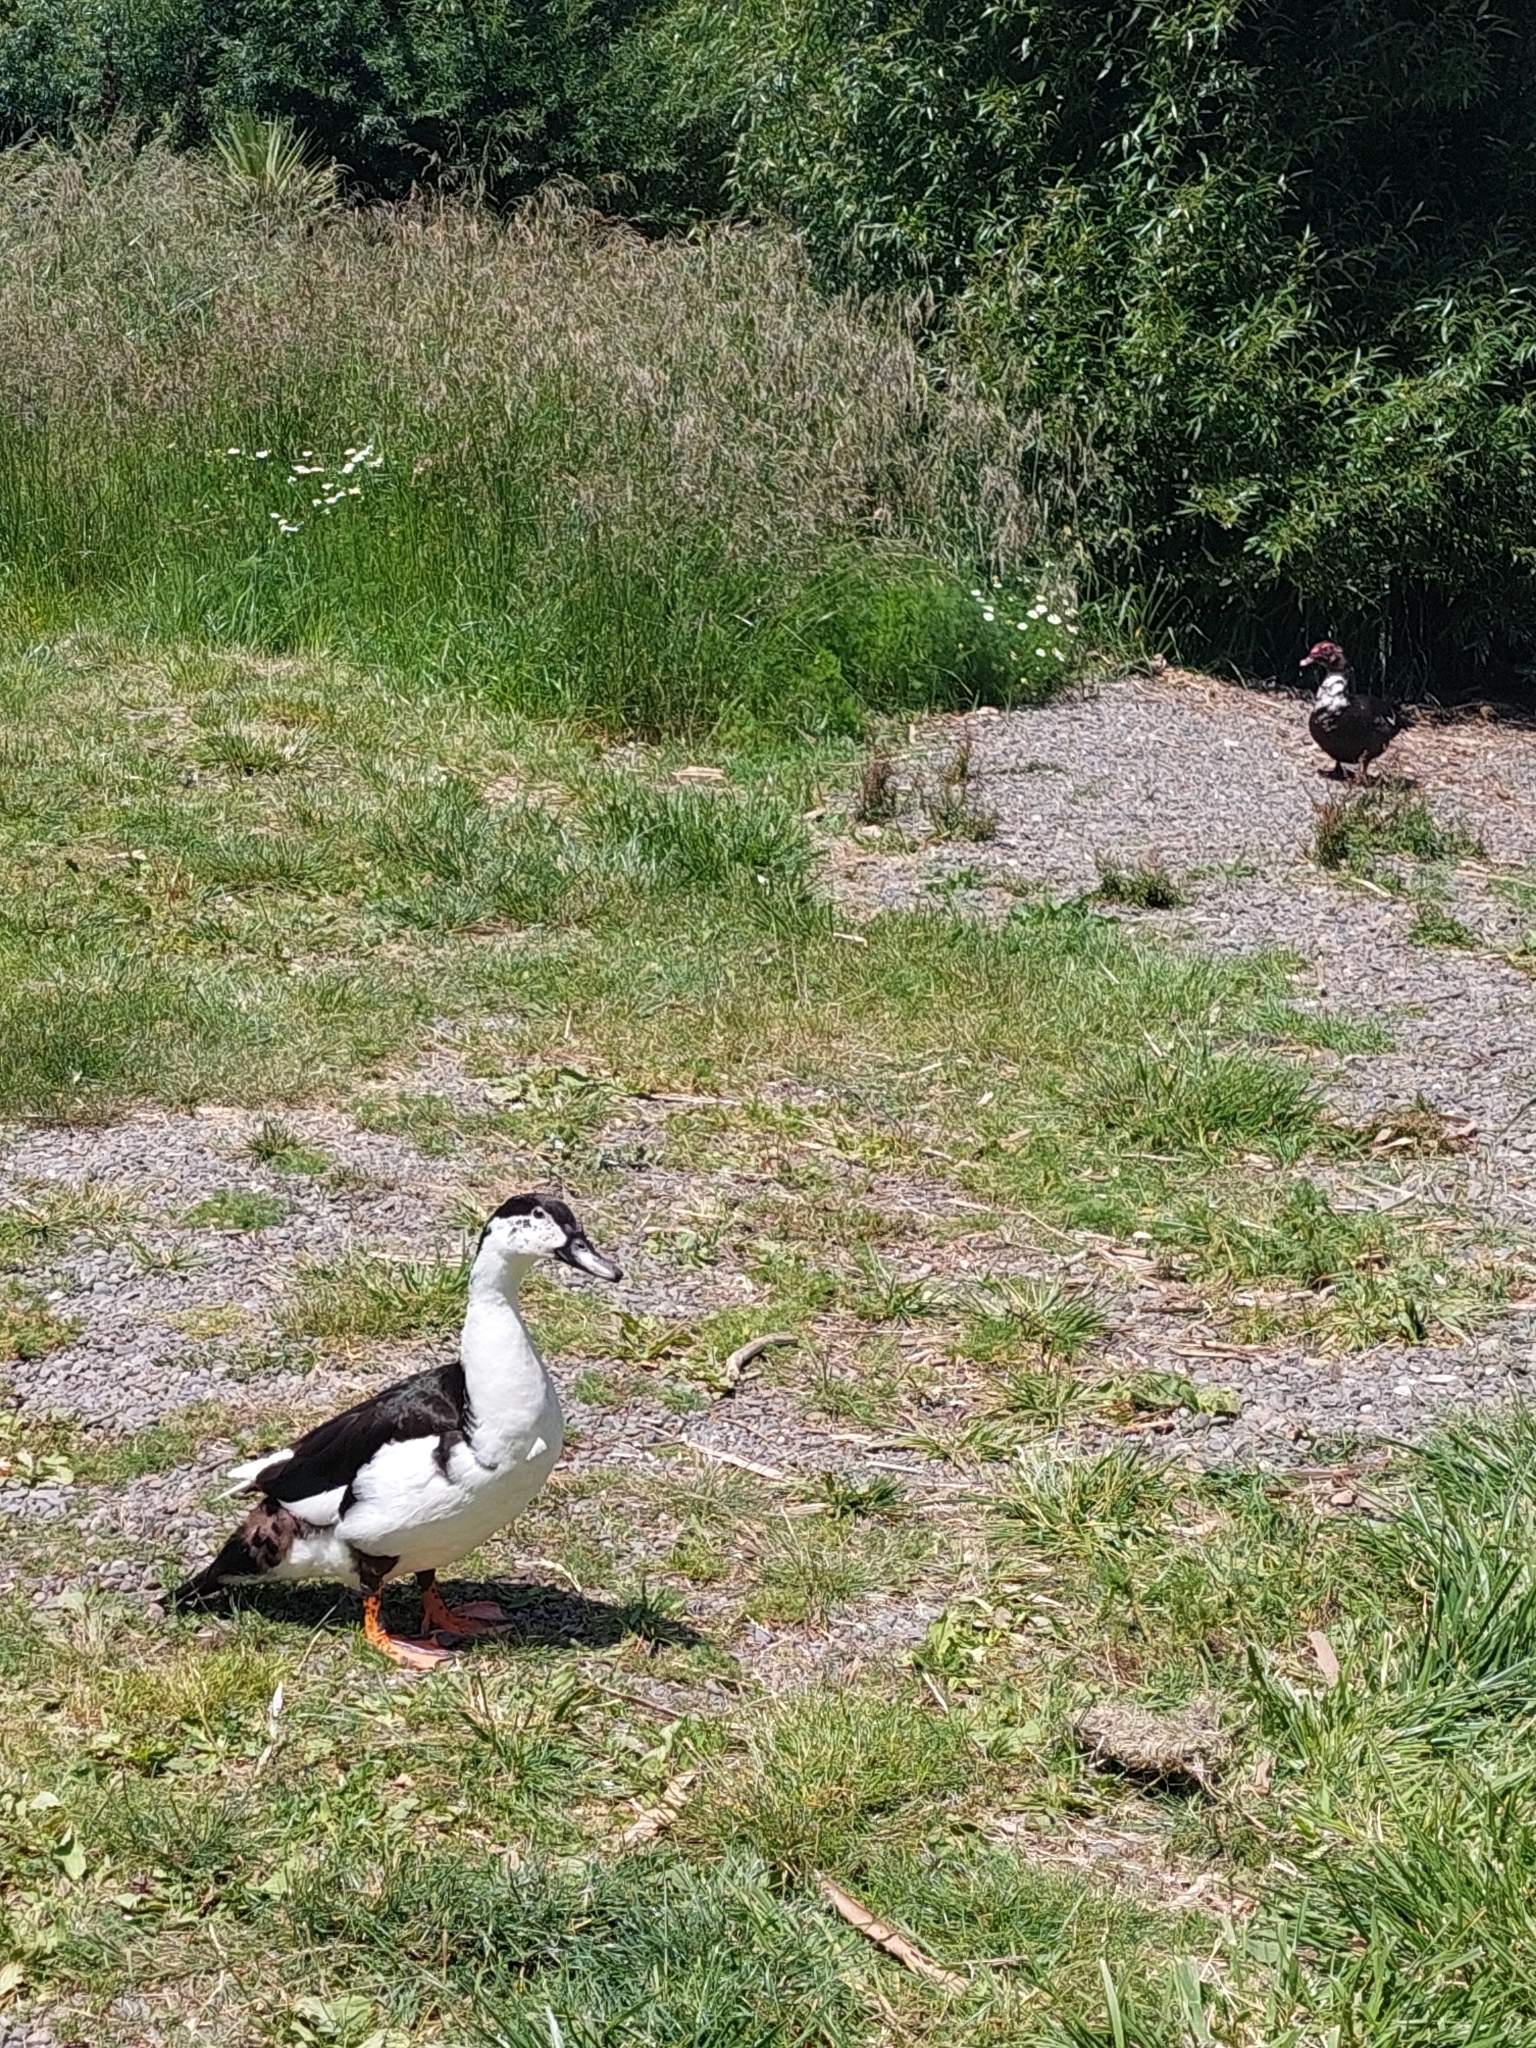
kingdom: Animalia
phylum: Chordata
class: Aves
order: Anseriformes
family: Anatidae
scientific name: Anatidae
